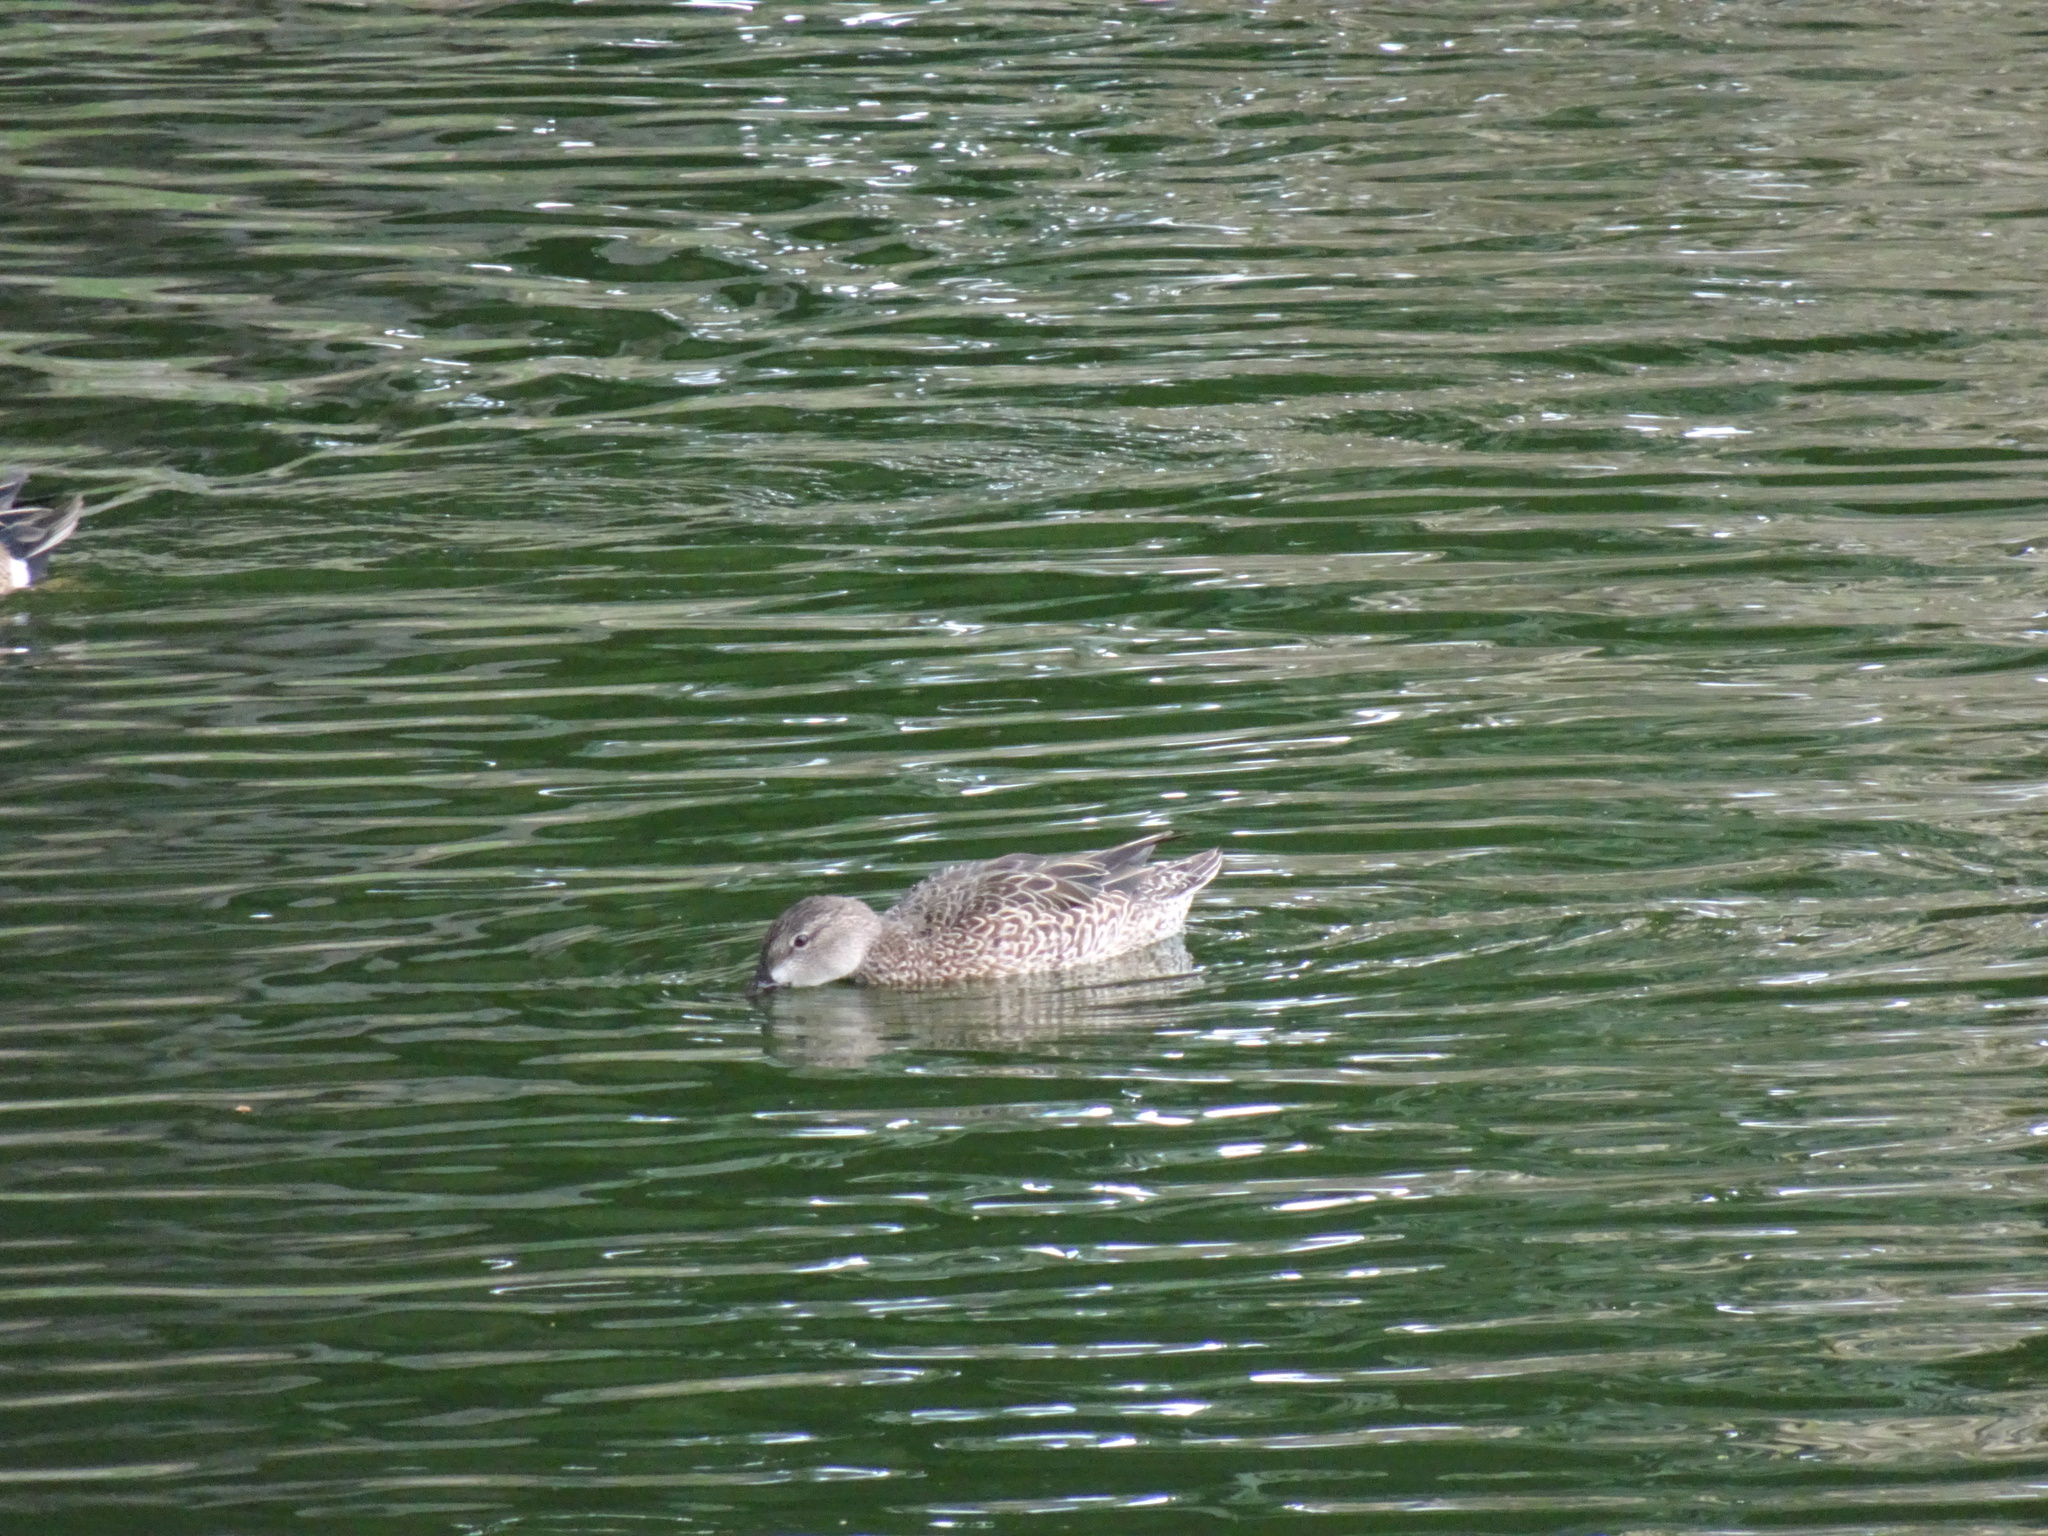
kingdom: Animalia
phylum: Chordata
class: Aves
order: Anseriformes
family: Anatidae
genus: Spatula
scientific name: Spatula discors
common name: Blue-winged teal
